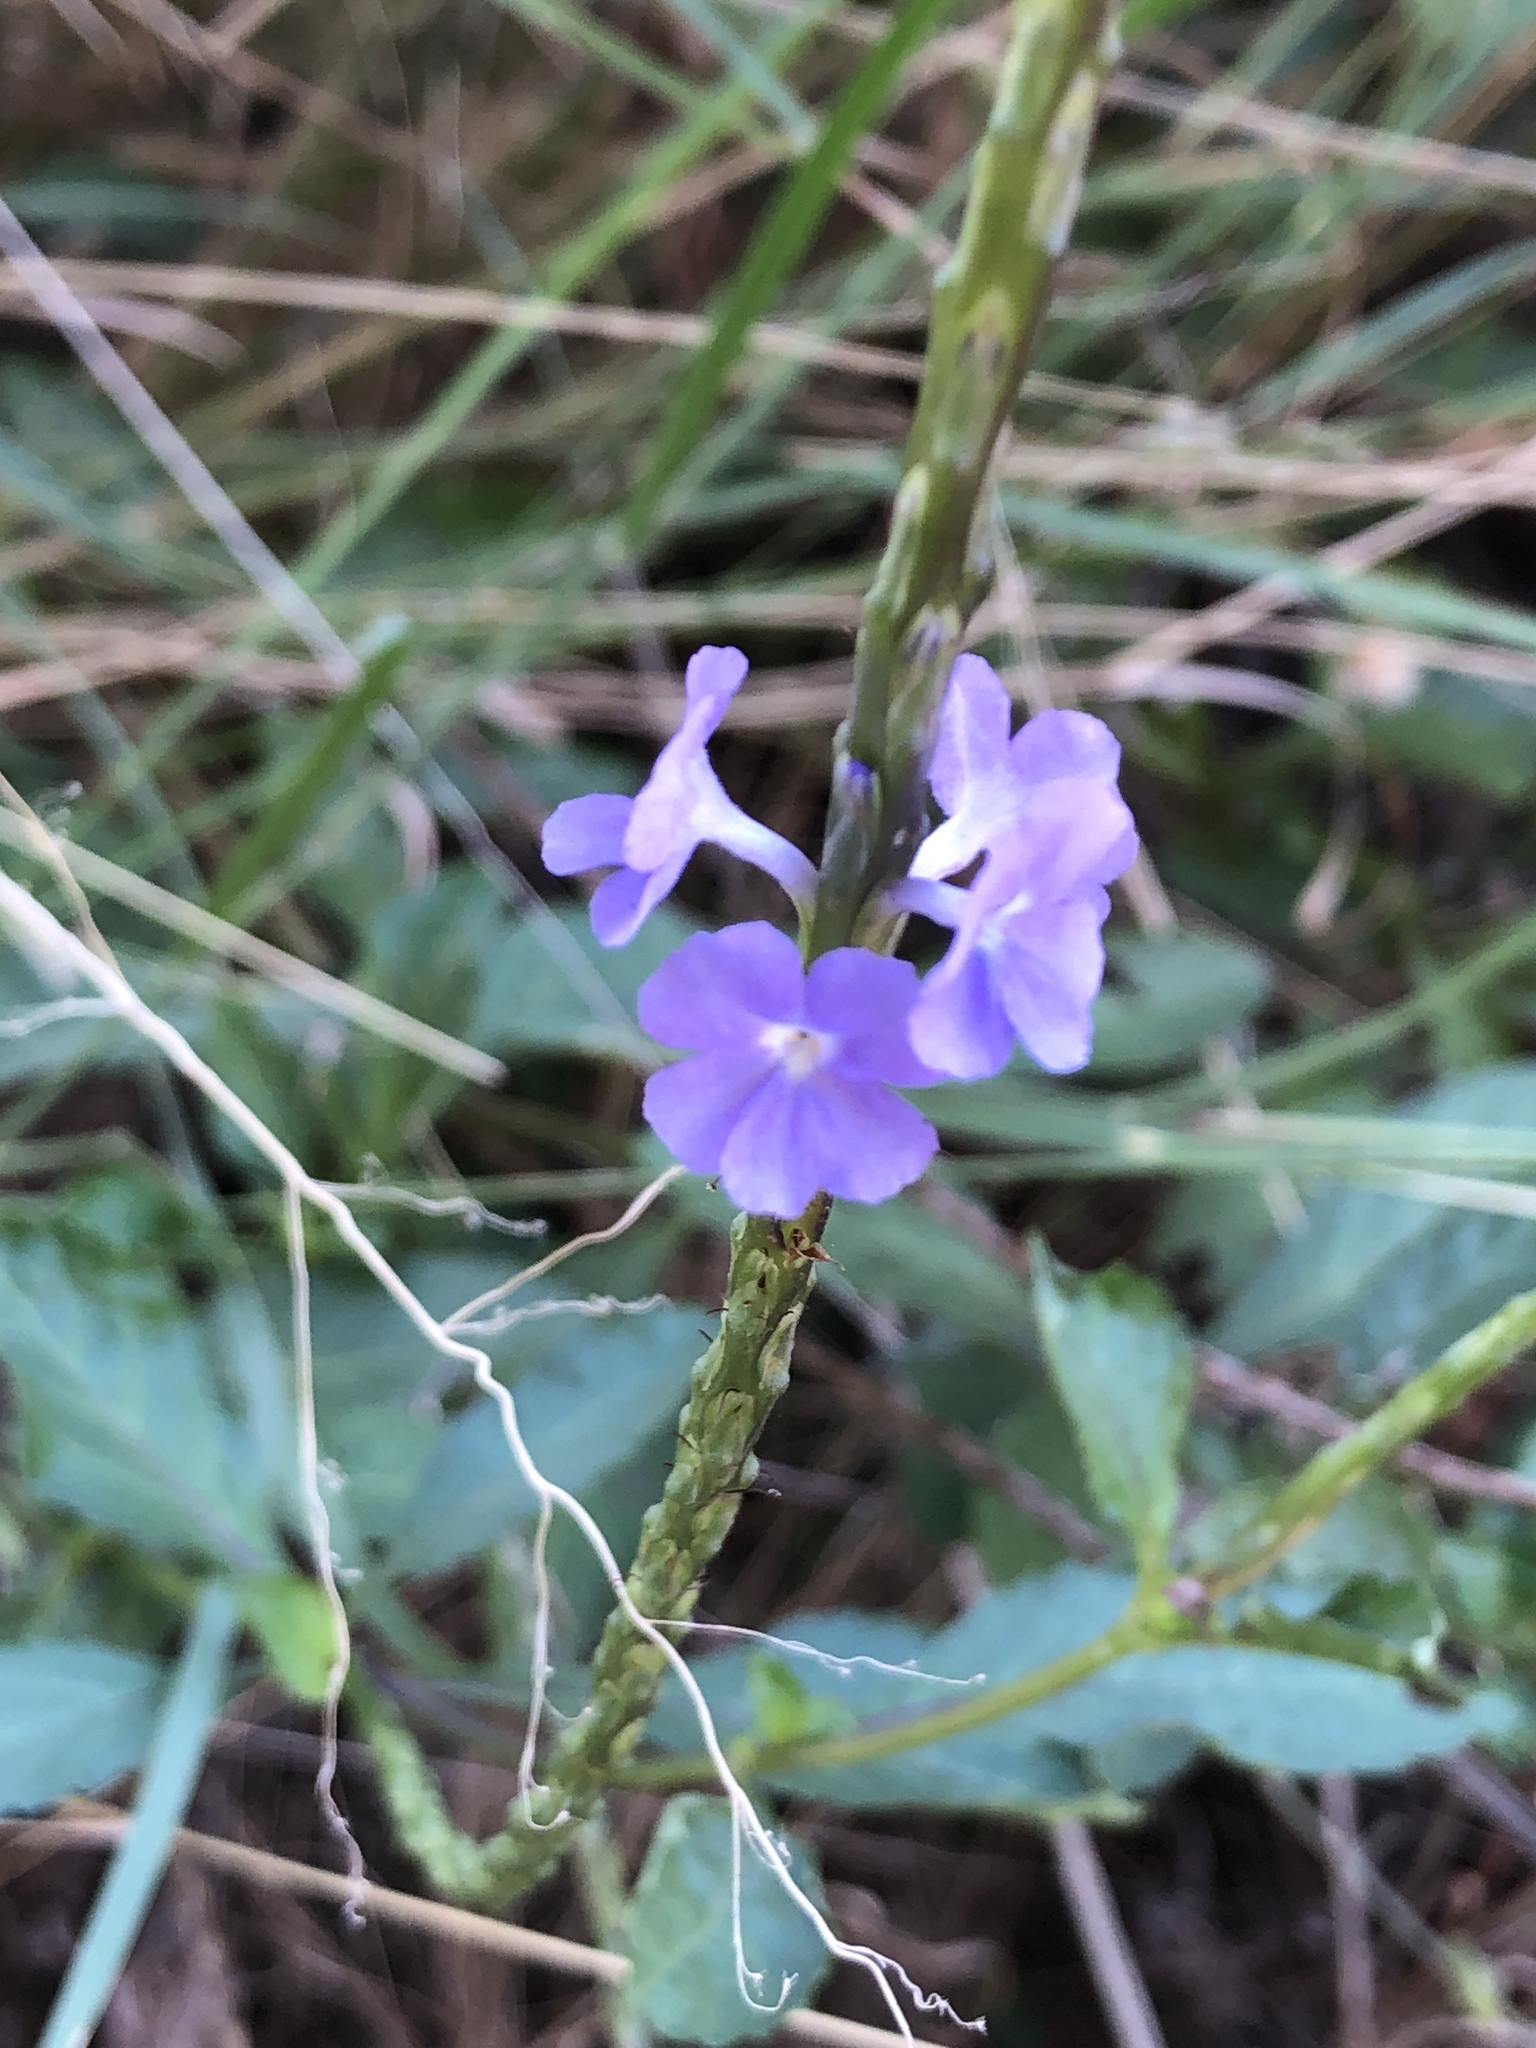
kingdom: Plantae
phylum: Tracheophyta
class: Magnoliopsida
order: Lamiales
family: Verbenaceae
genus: Stachytarpheta
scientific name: Stachytarpheta jamaicensis
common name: Light-blue snakeweed
